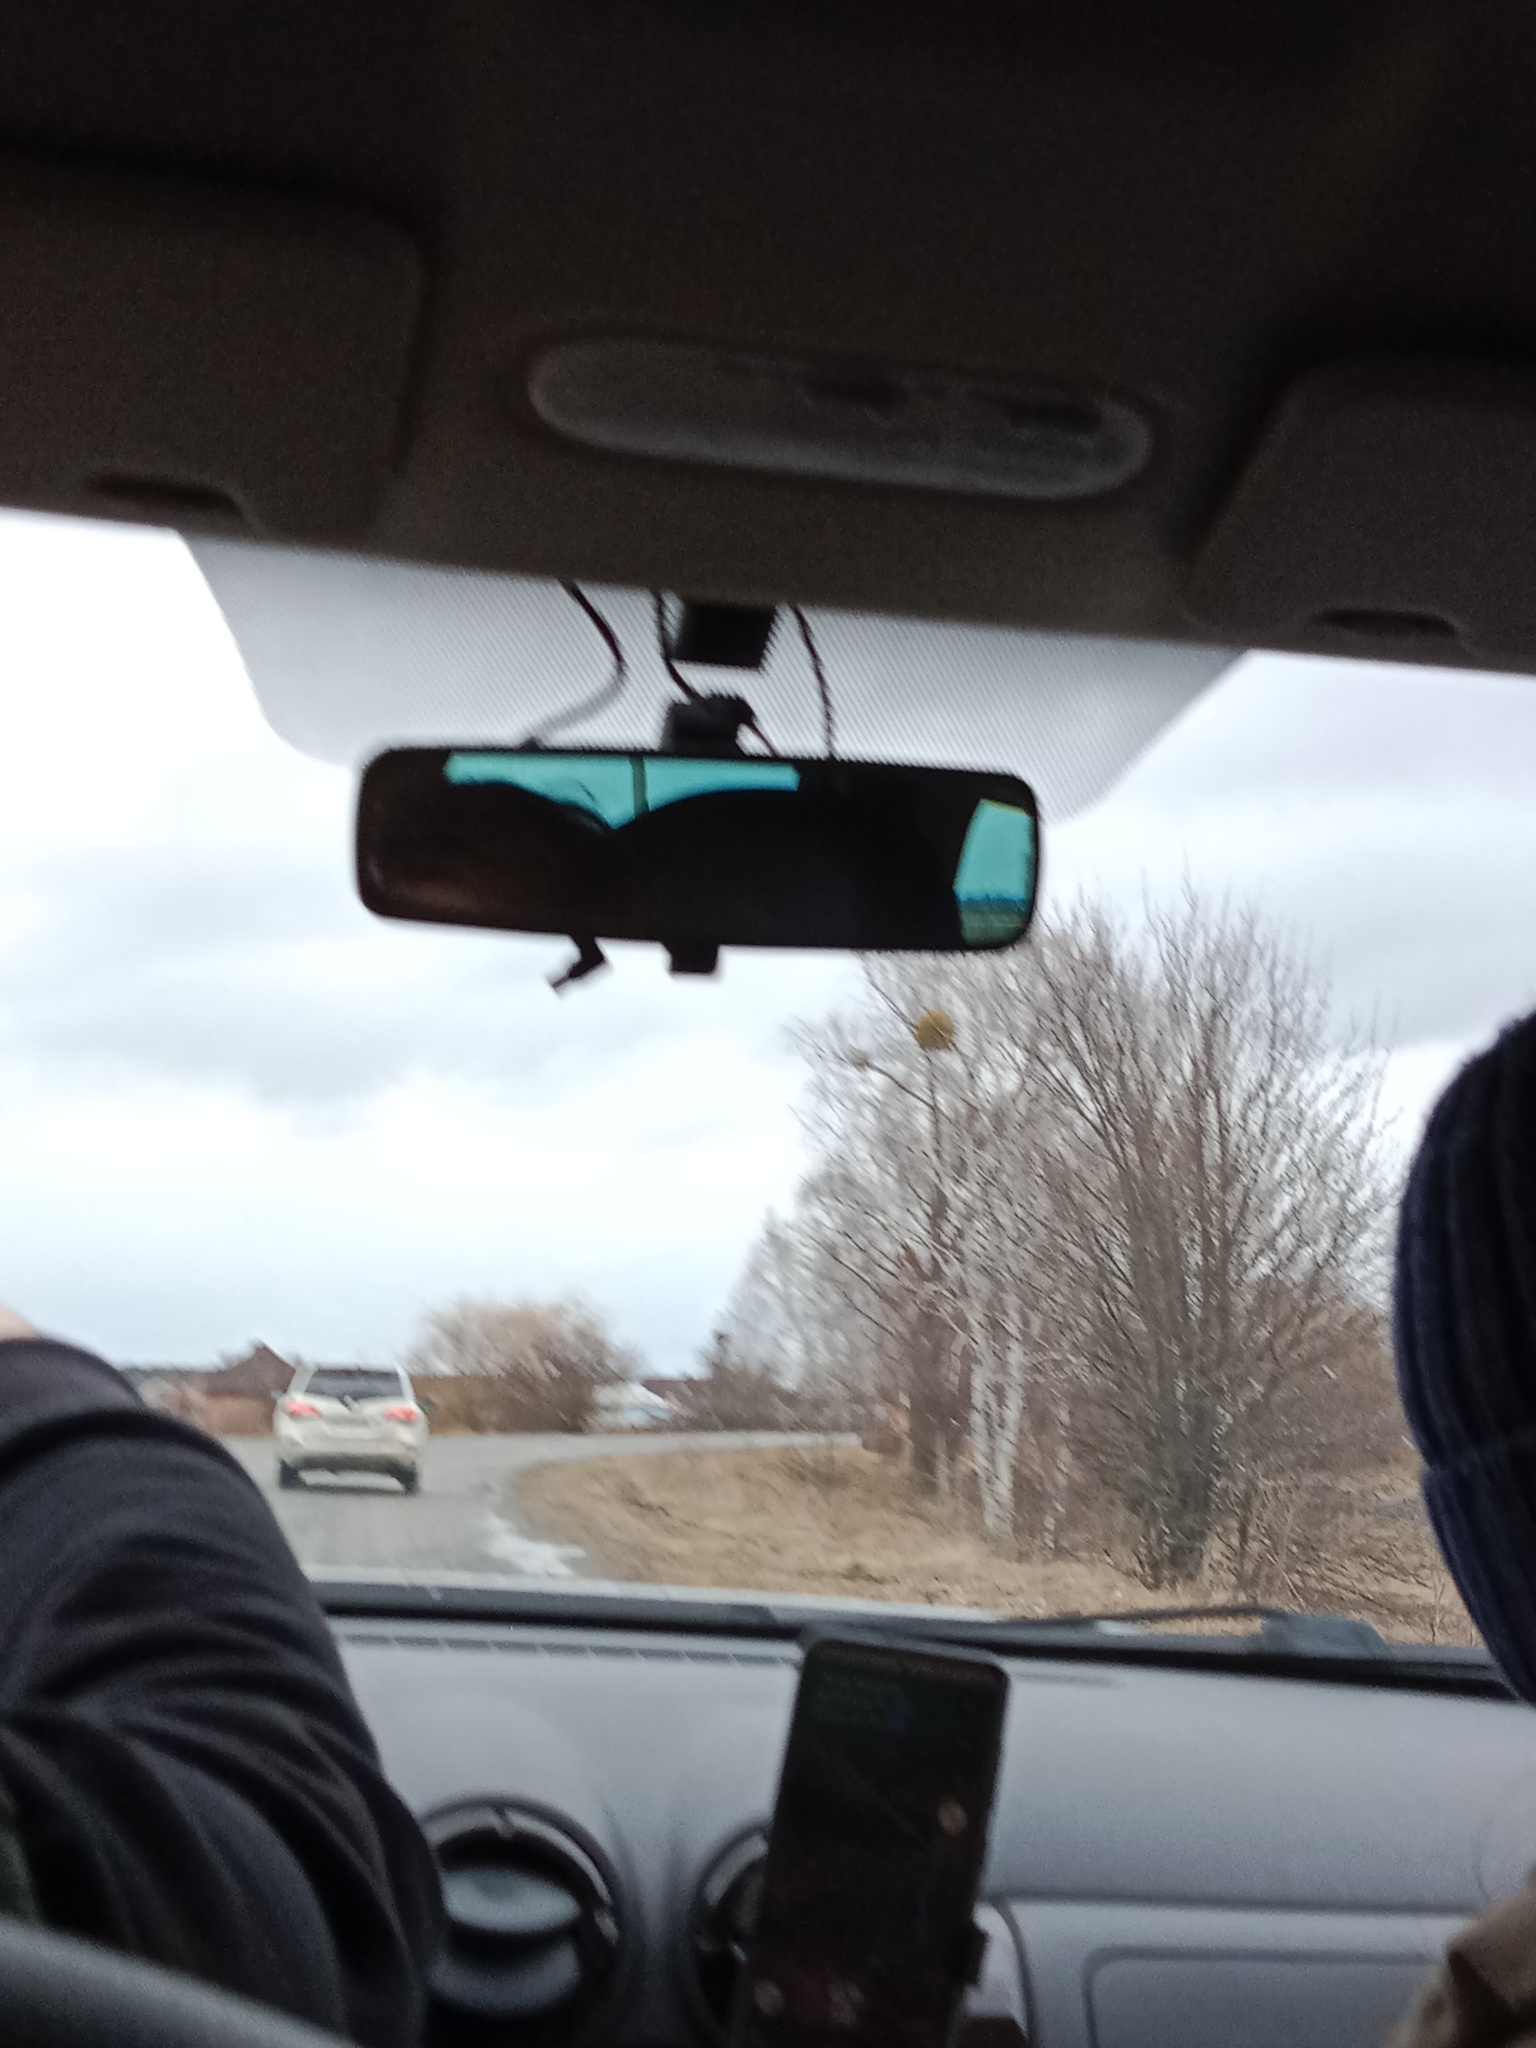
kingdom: Plantae
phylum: Tracheophyta
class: Magnoliopsida
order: Santalales
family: Viscaceae
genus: Viscum
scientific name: Viscum album
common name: Mistletoe
